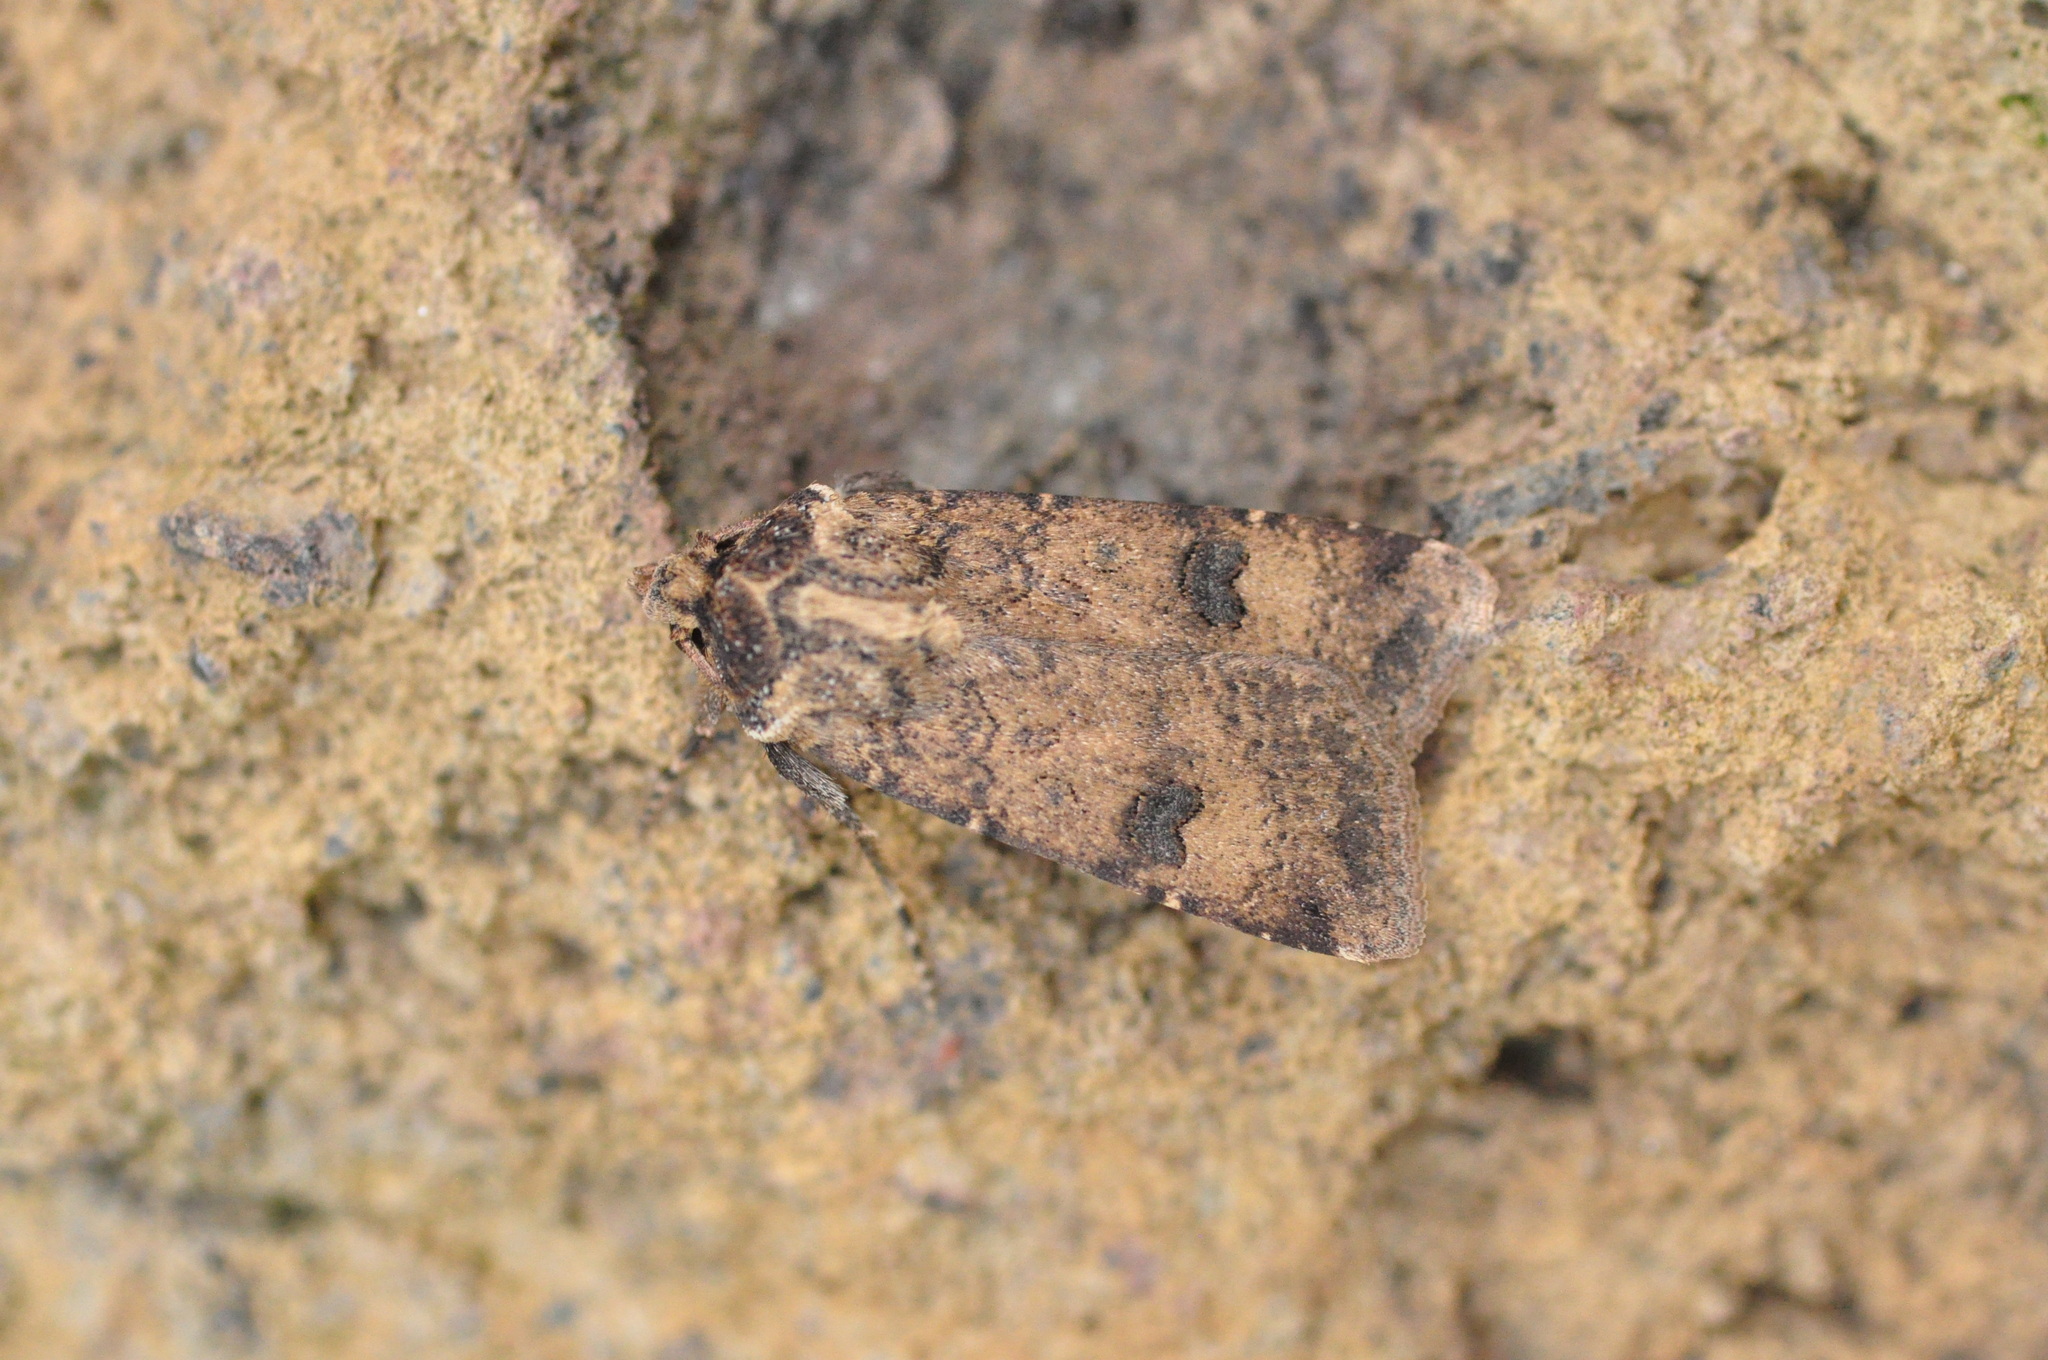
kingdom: Animalia
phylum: Arthropoda
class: Insecta
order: Lepidoptera
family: Noctuidae
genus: Agrotis
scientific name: Agrotis trux
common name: Crescent dart
